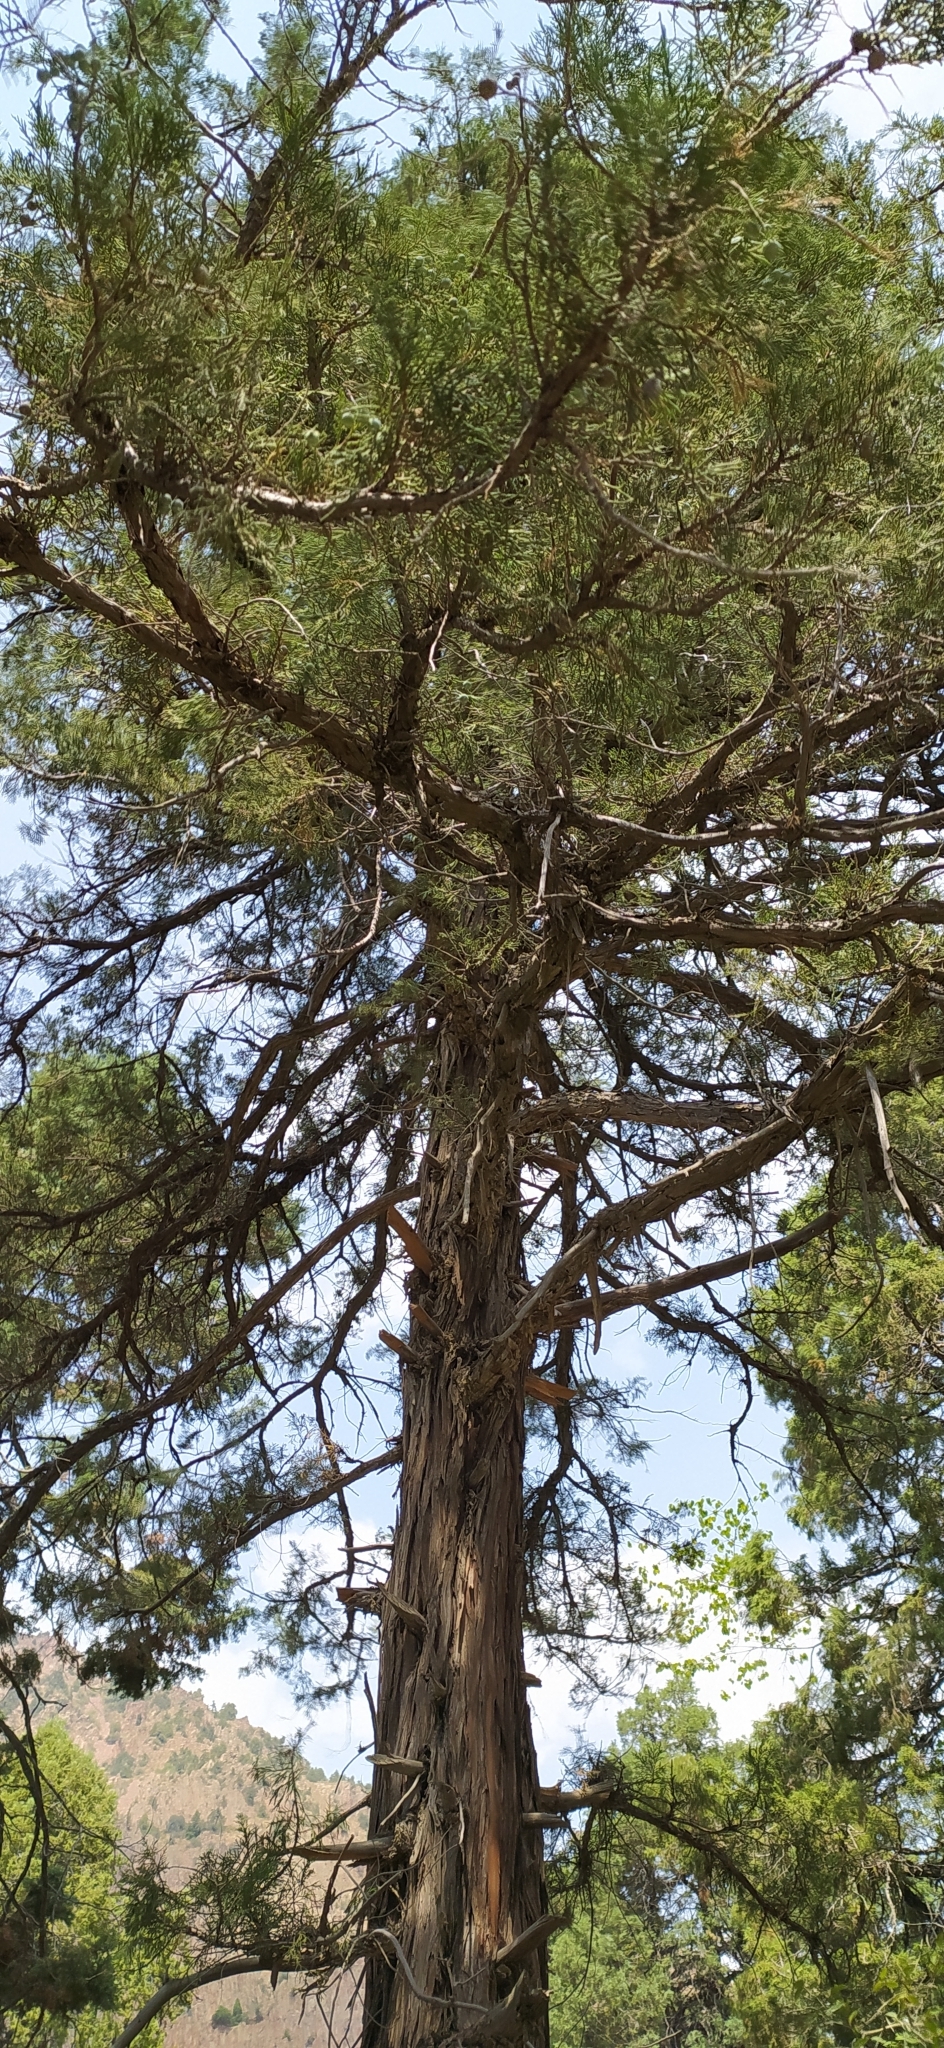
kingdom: Plantae
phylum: Tracheophyta
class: Pinopsida
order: Pinales
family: Cupressaceae
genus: Juniperus
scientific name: Juniperus excelsa
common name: Crimean juniper
